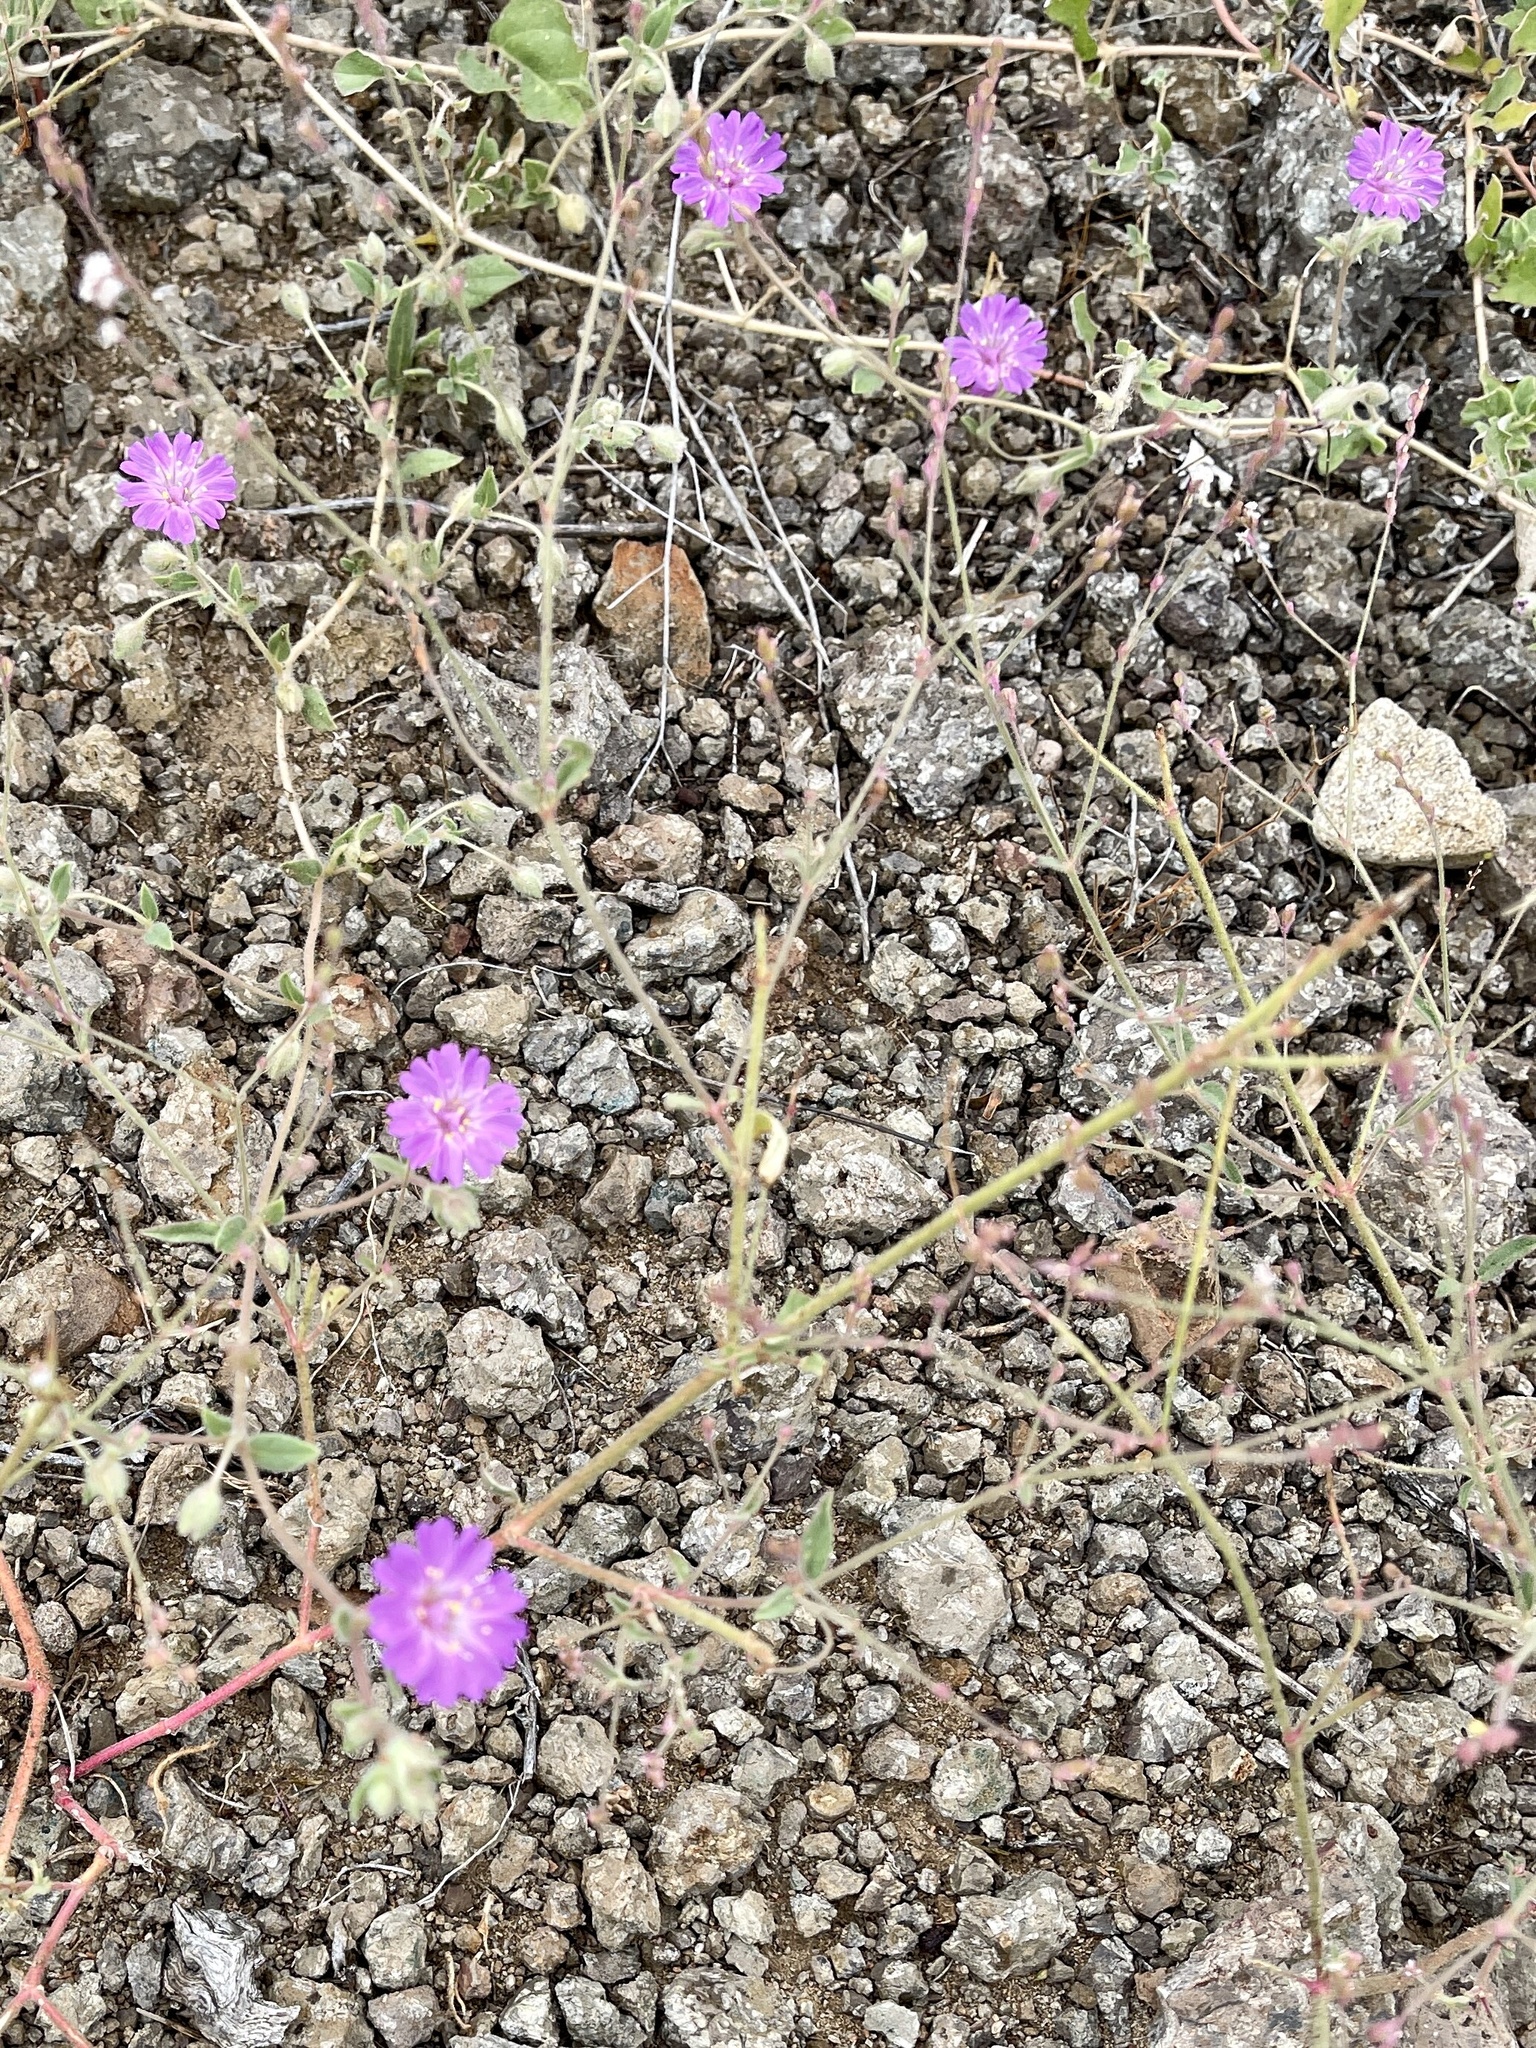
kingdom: Plantae
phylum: Tracheophyta
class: Magnoliopsida
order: Caryophyllales
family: Nyctaginaceae
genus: Allionia
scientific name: Allionia incarnata
